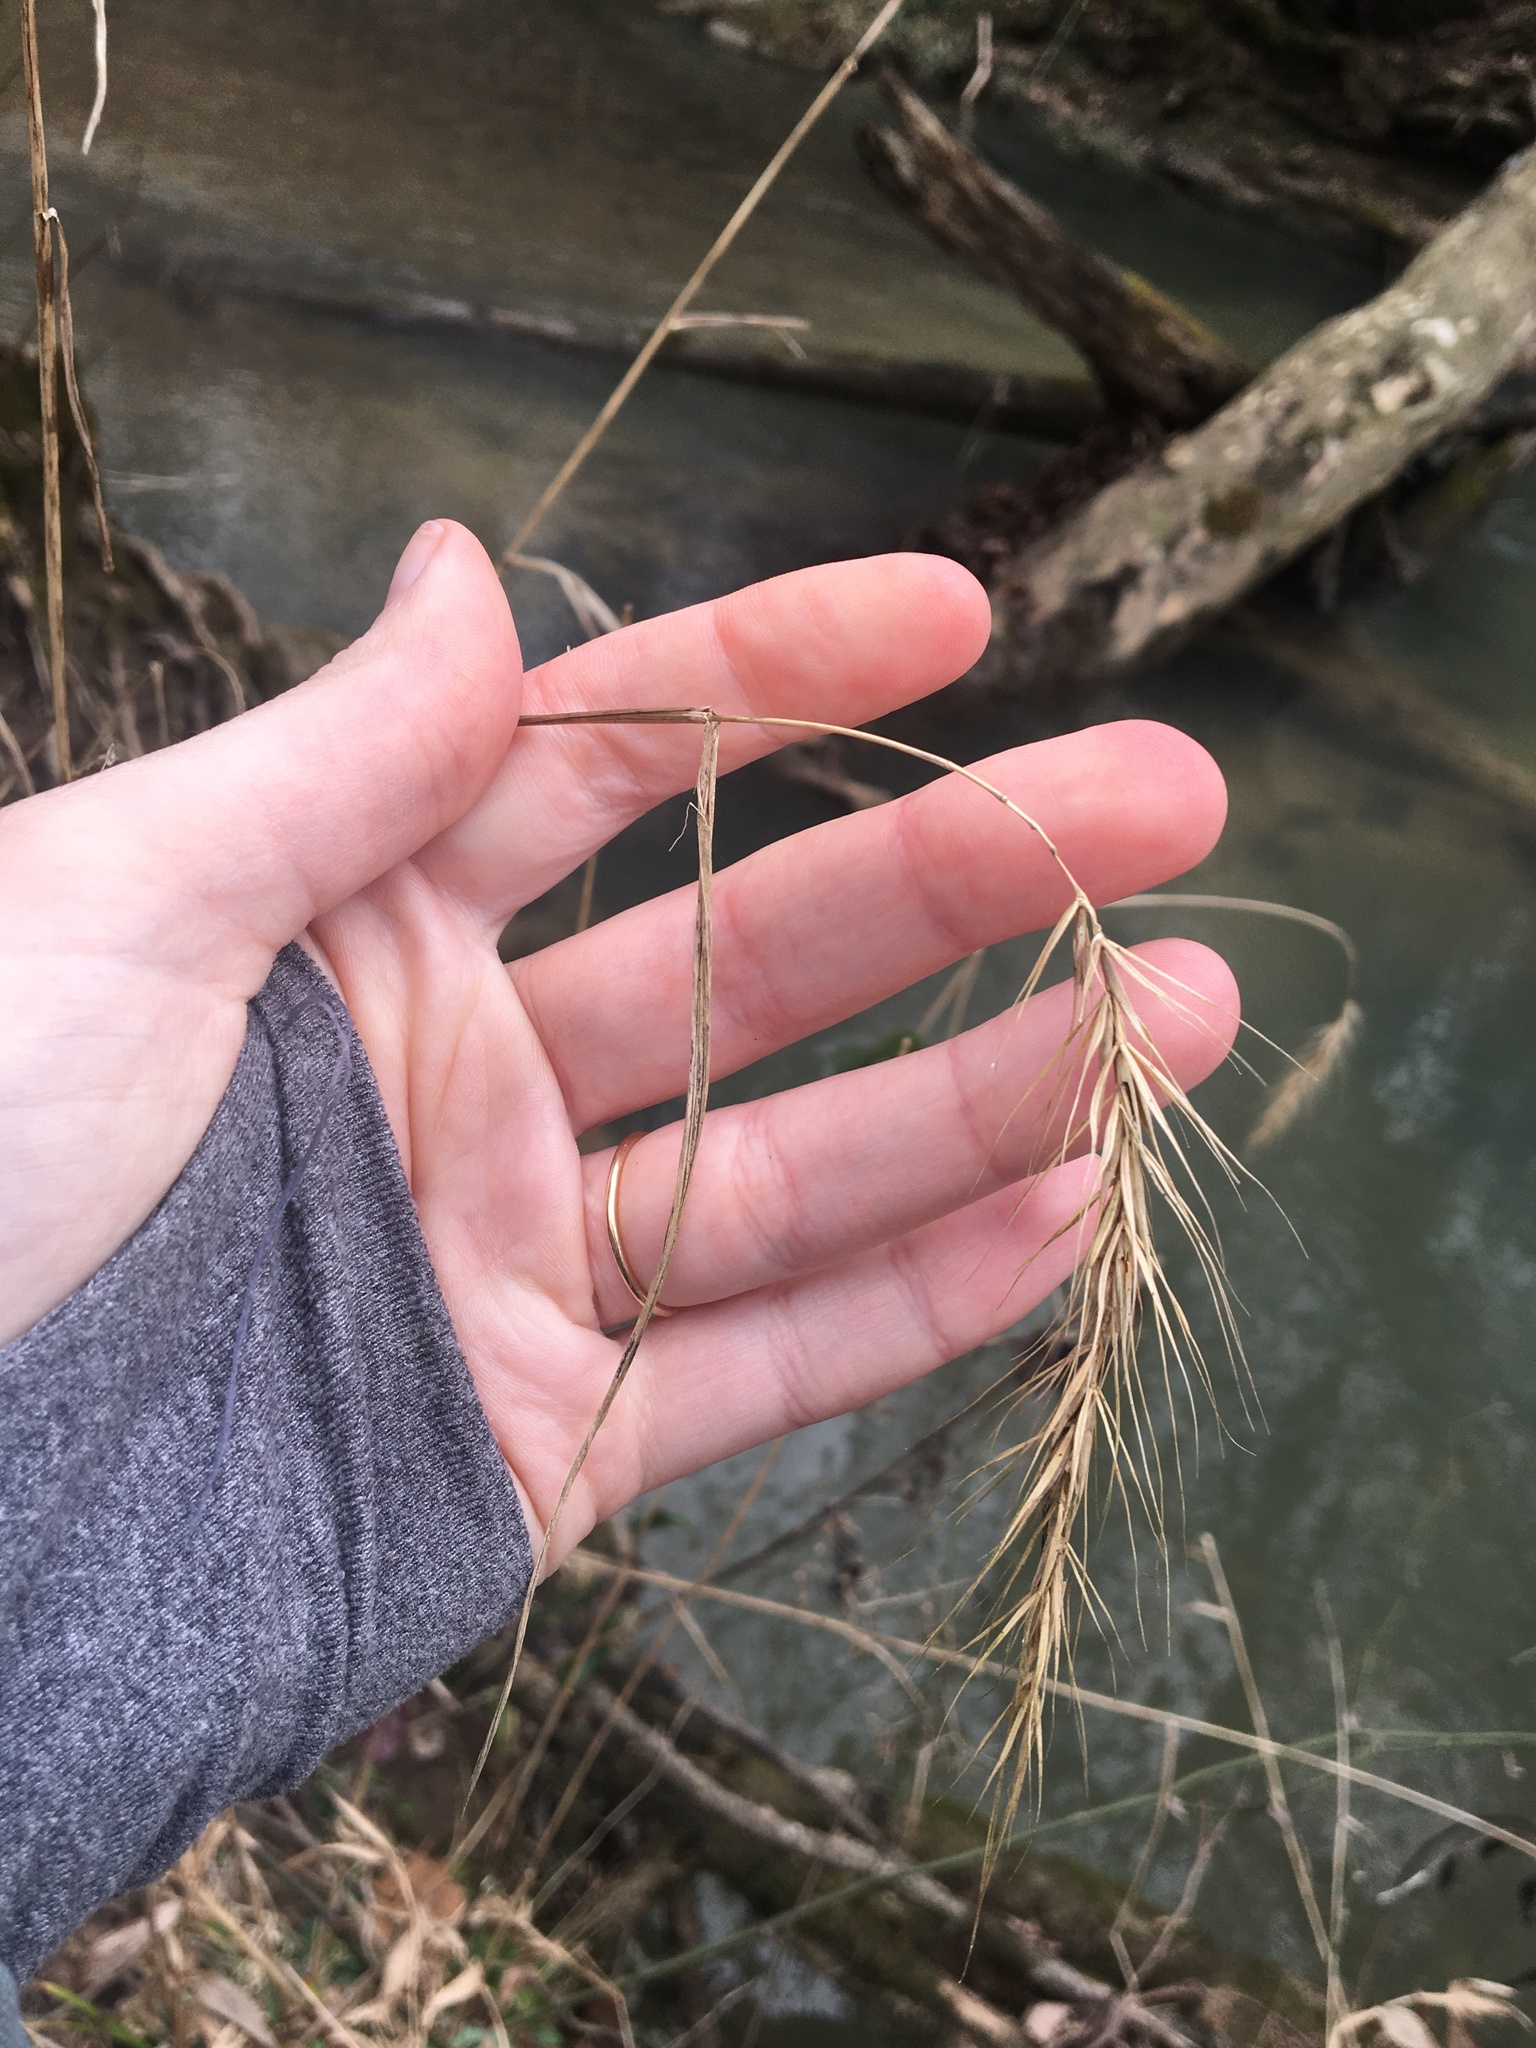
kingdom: Plantae
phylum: Tracheophyta
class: Liliopsida
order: Poales
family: Poaceae
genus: Elymus
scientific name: Elymus riparius
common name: Eastern riverbank wild rye
